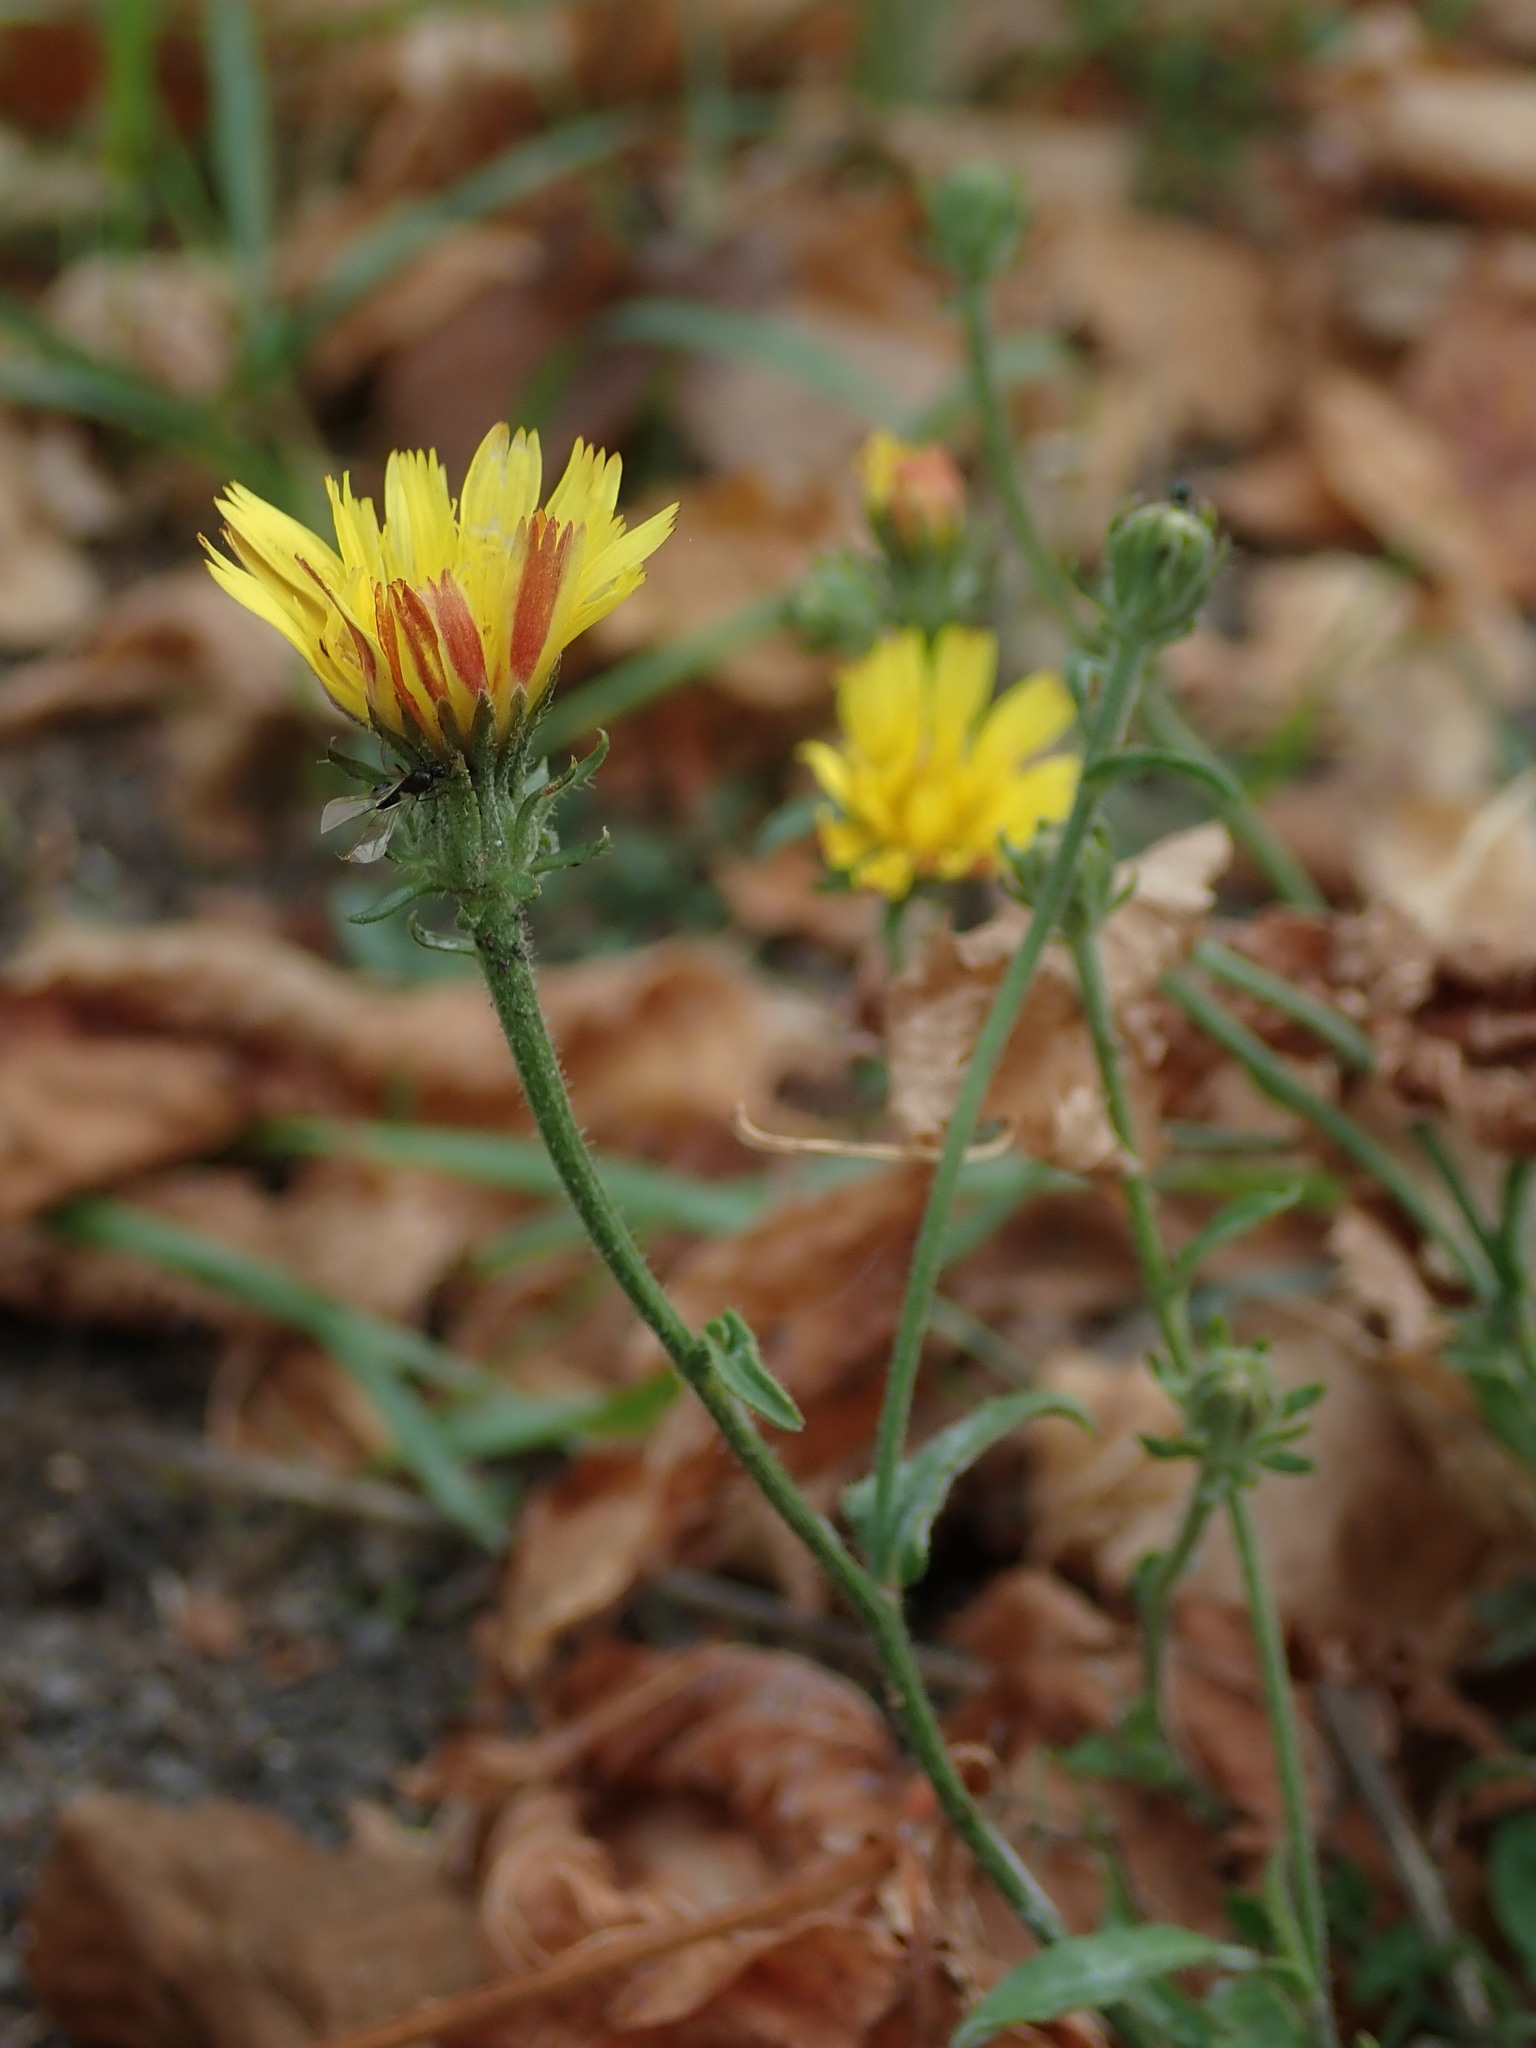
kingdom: Plantae
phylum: Tracheophyta
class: Magnoliopsida
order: Asterales
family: Asteraceae
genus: Picris
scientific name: Picris hieracioides
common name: Hawkweed oxtongue
